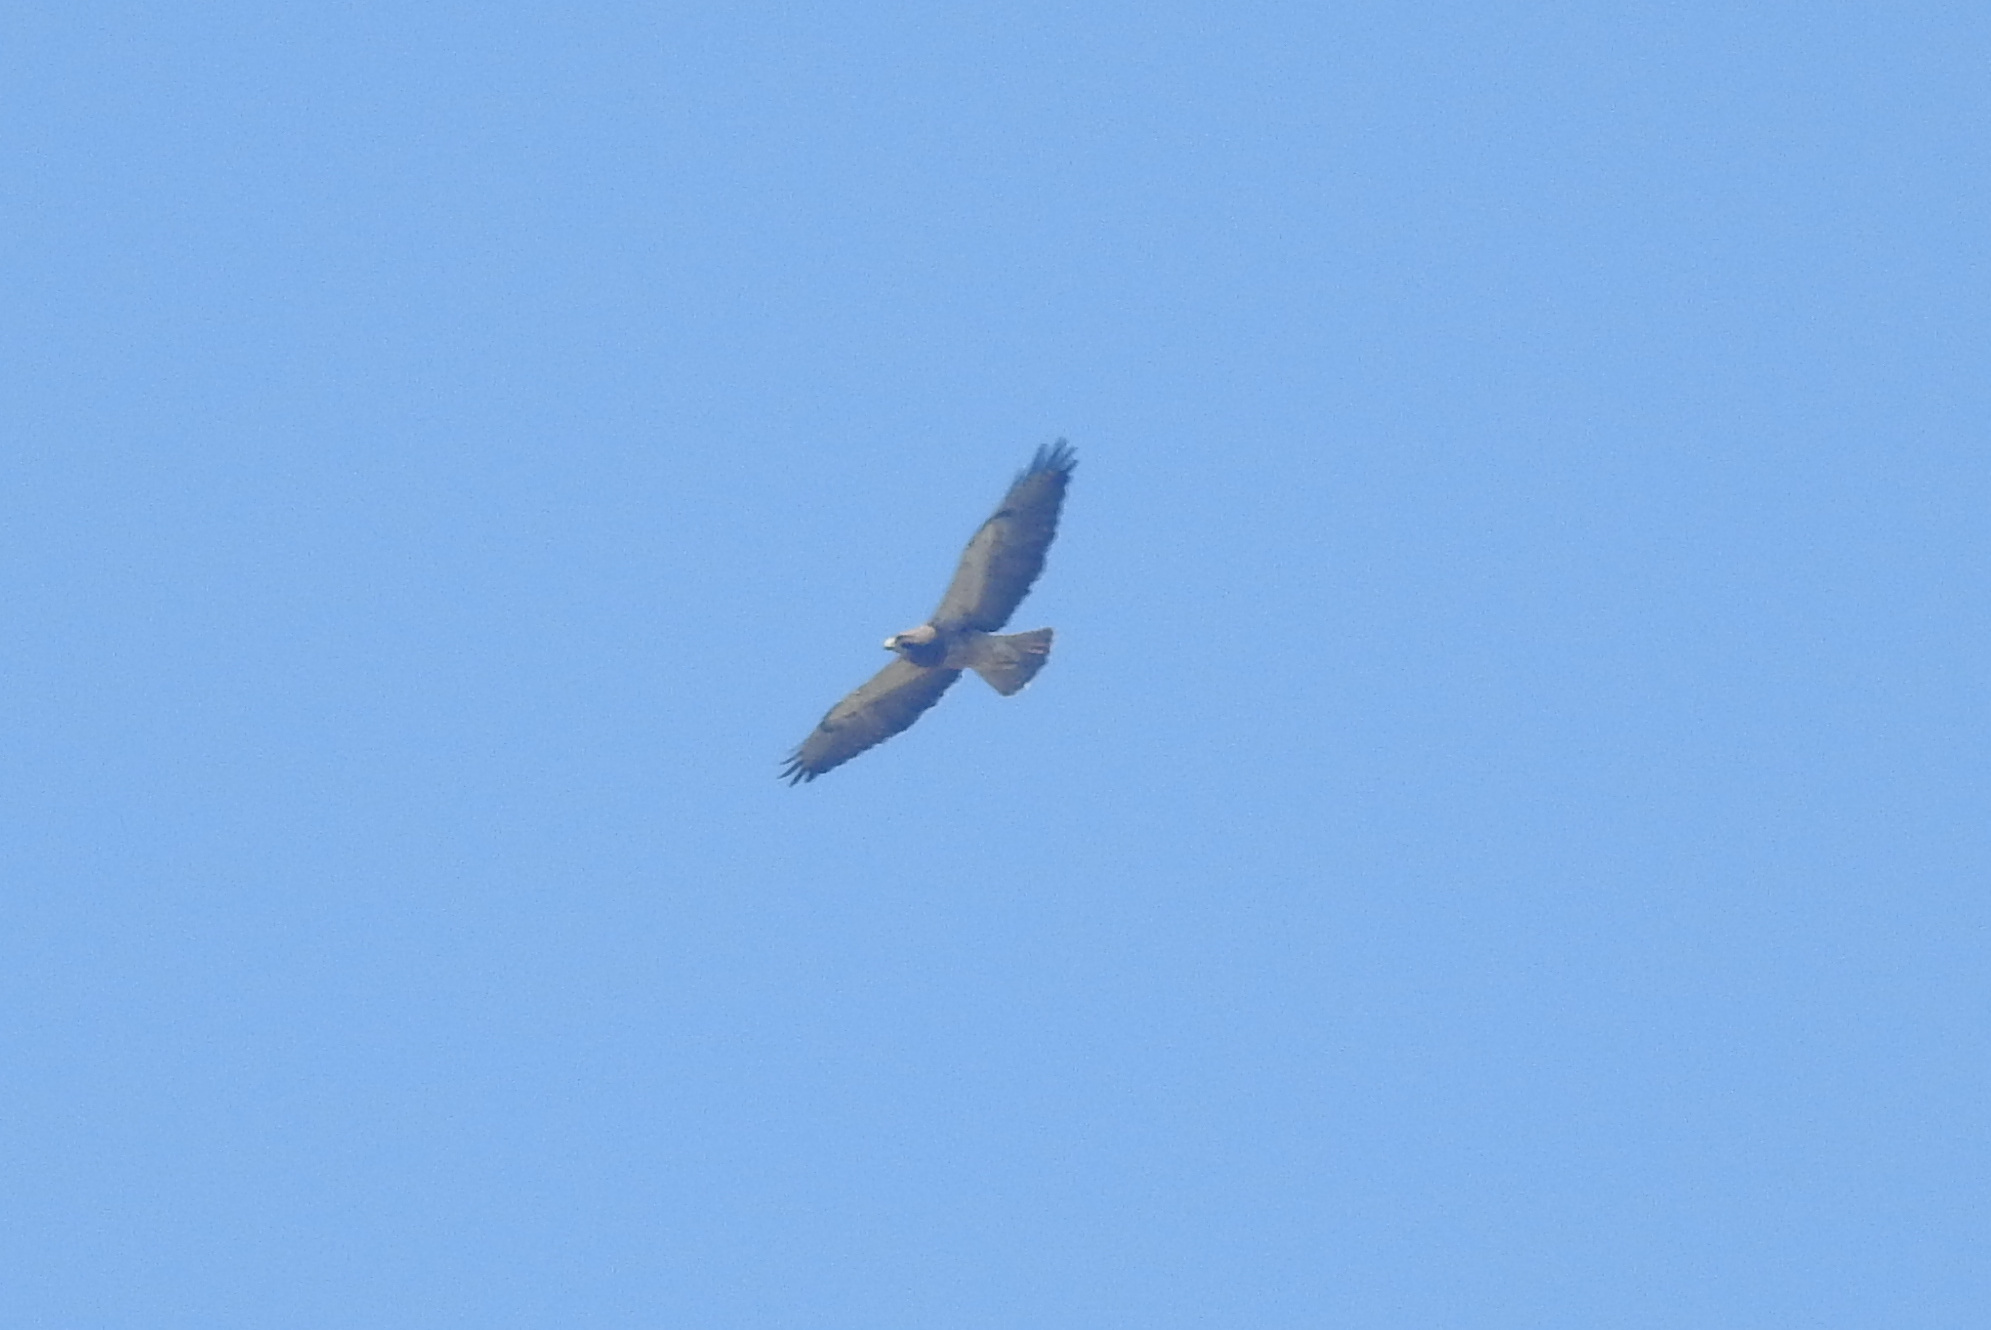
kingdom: Animalia
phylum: Chordata
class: Aves
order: Accipitriformes
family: Accipitridae
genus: Buteo
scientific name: Buteo swainsoni
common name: Swainson's hawk
